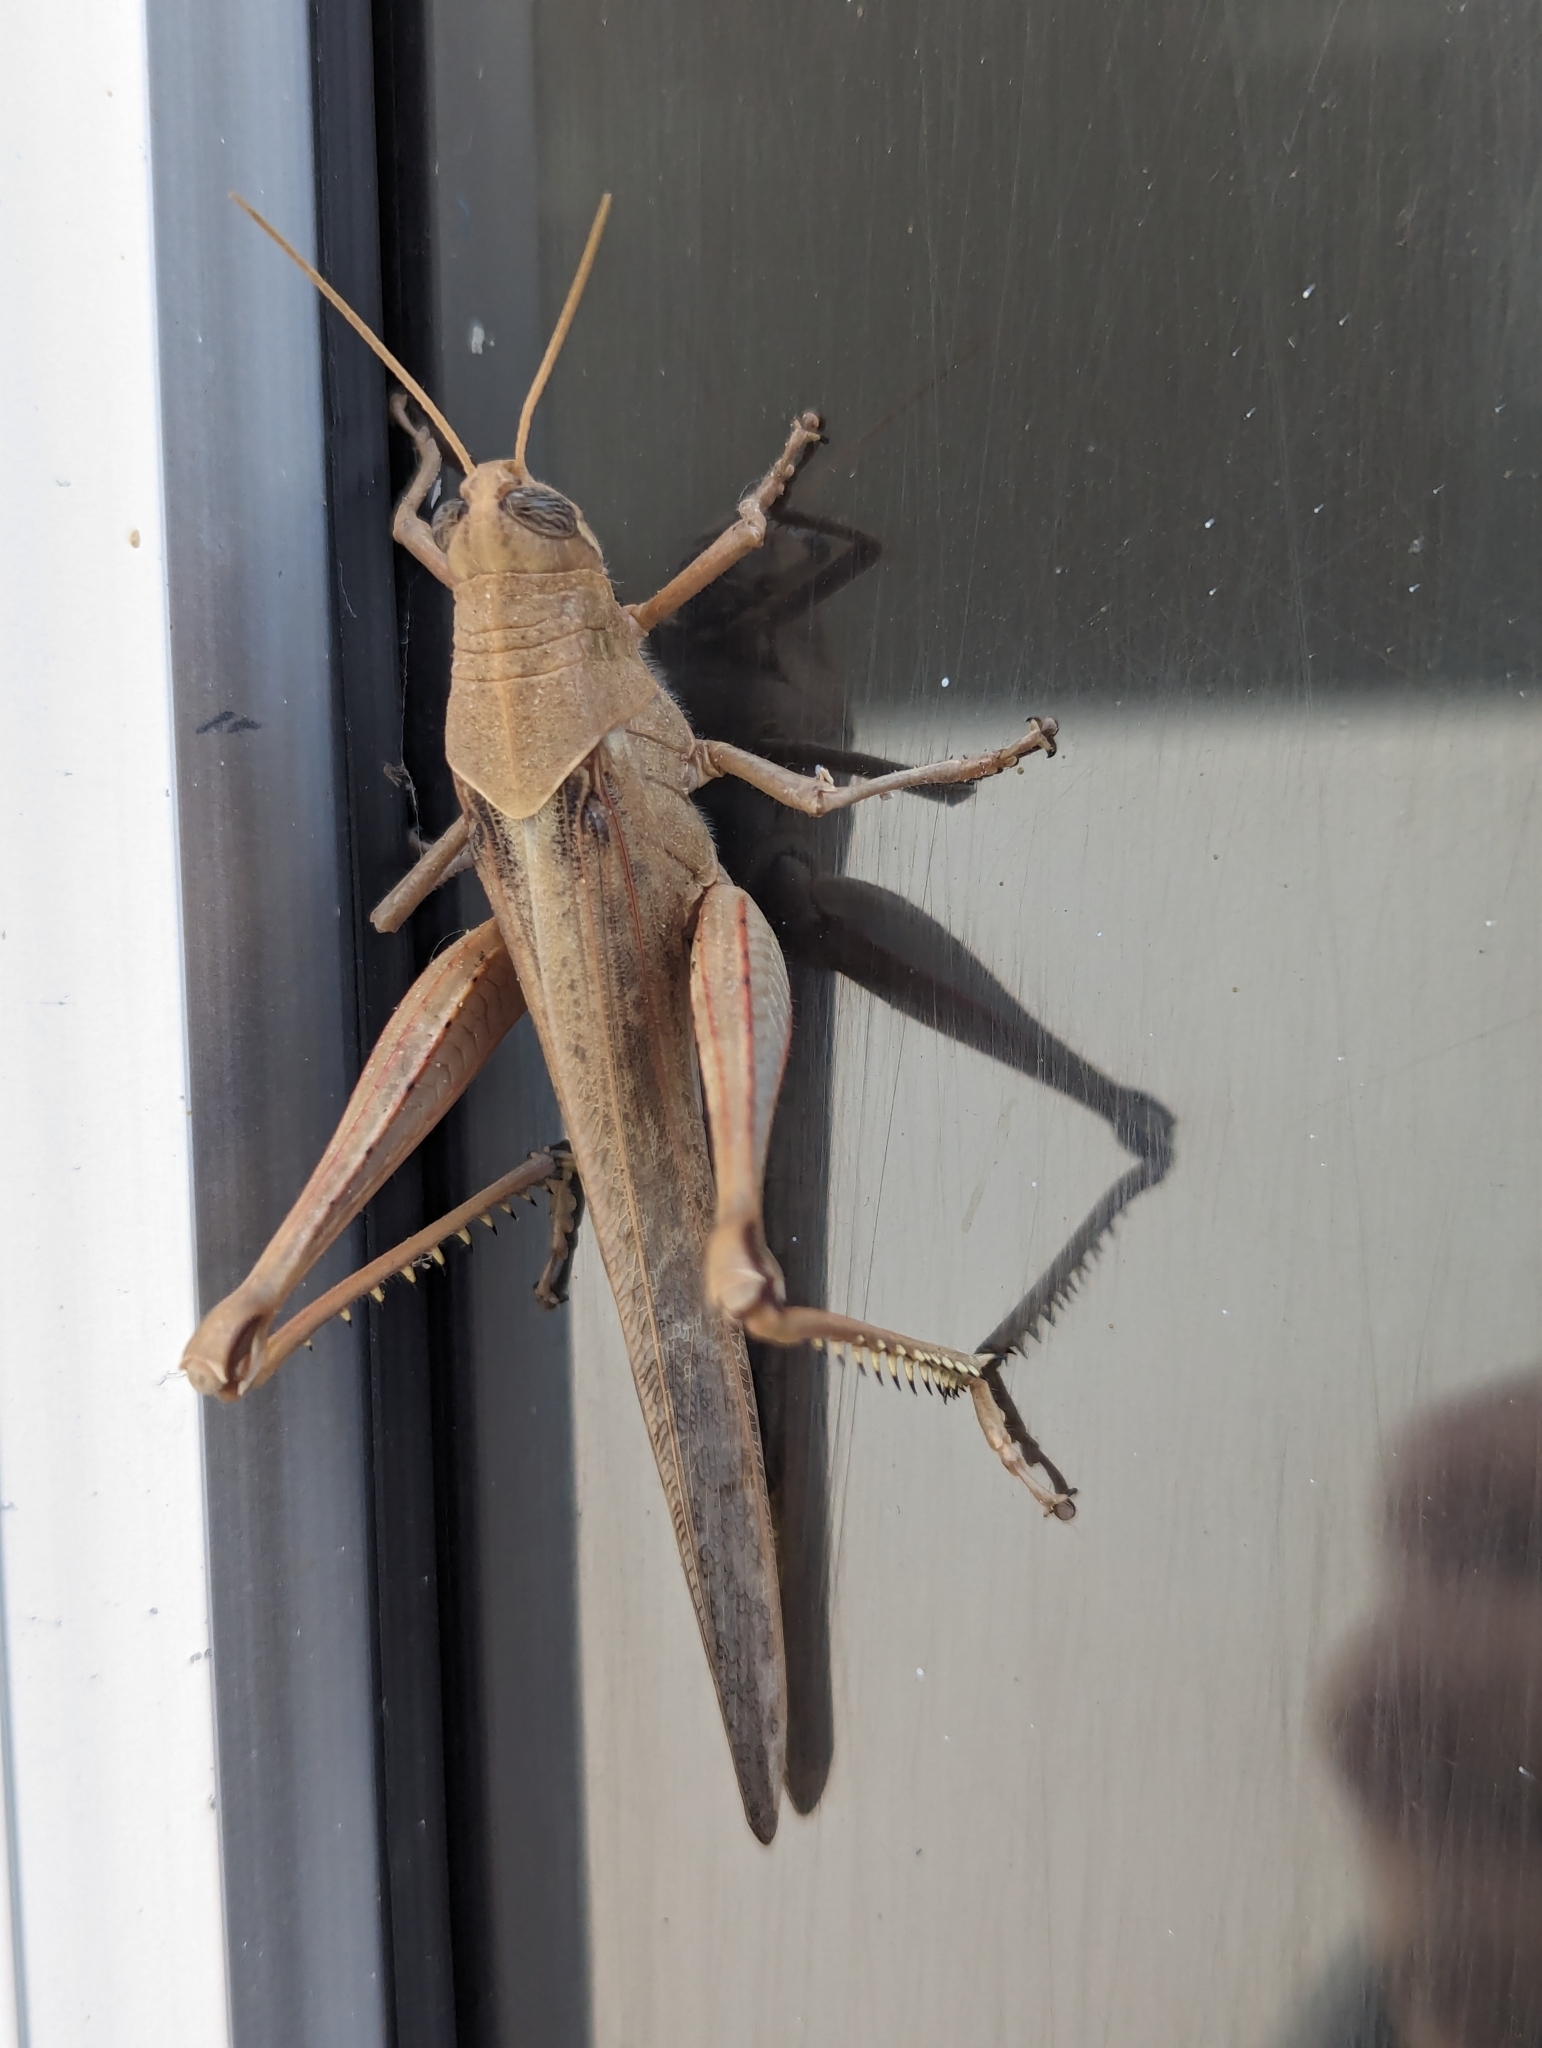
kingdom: Animalia
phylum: Arthropoda
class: Insecta
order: Orthoptera
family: Acrididae
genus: Schistocerca
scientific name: Schistocerca nitens
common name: Vagrant grasshopper
